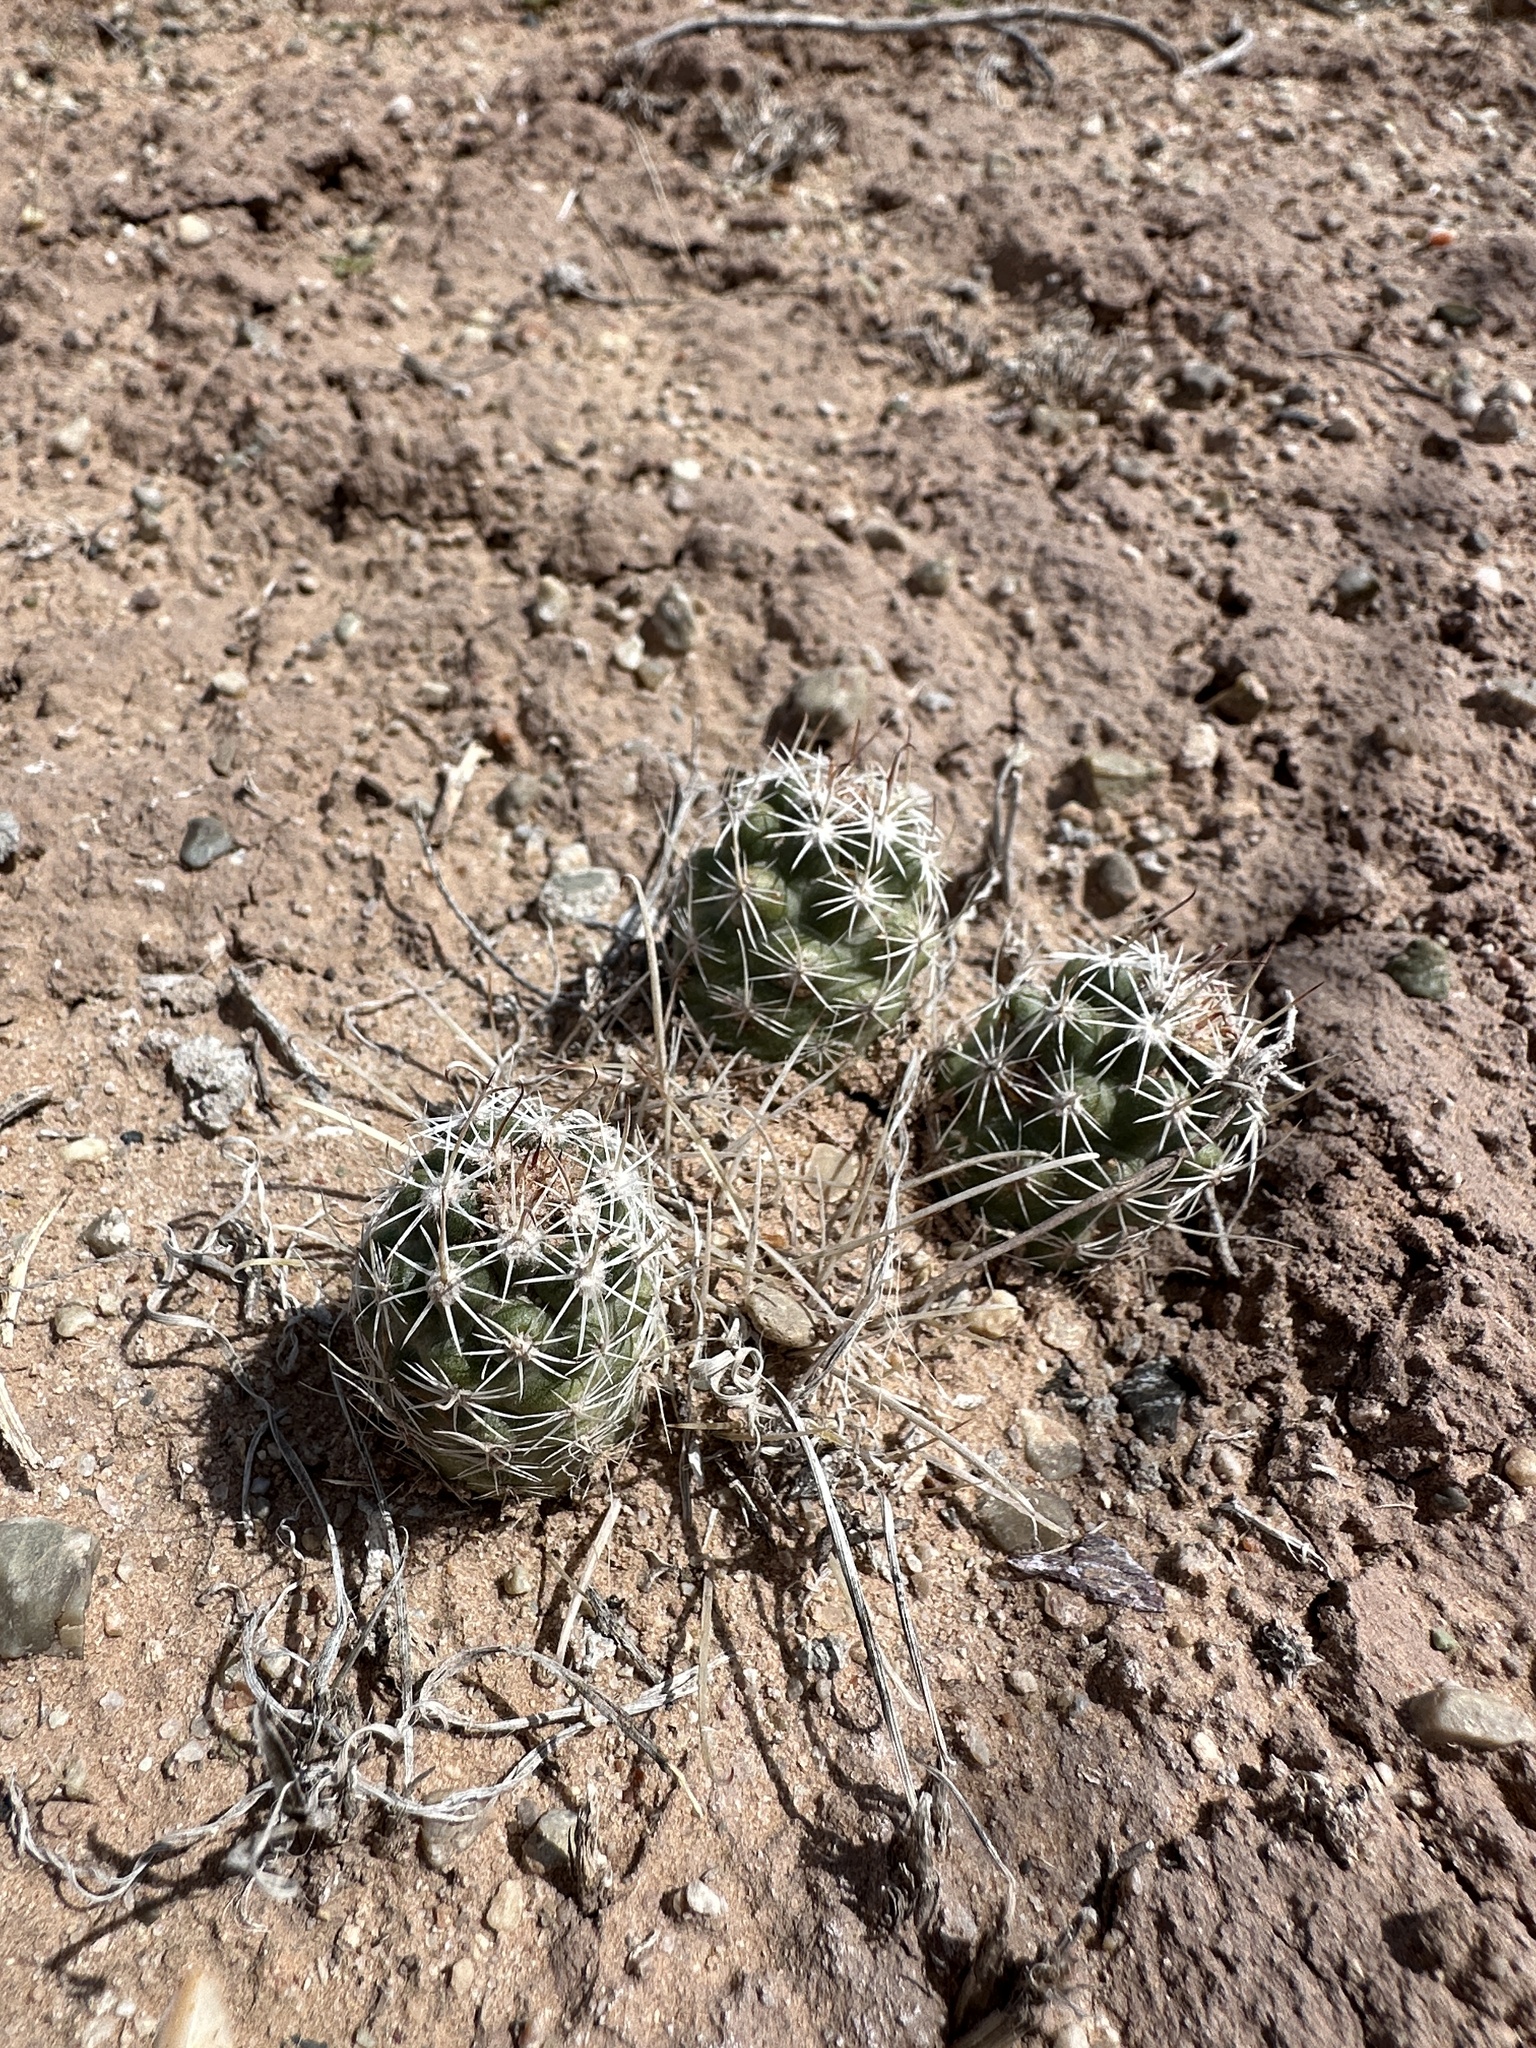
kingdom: Plantae
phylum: Tracheophyta
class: Magnoliopsida
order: Caryophyllales
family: Cactaceae
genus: Sclerocactus
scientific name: Sclerocactus parviflorus
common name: Small-flower fishhook cactus
